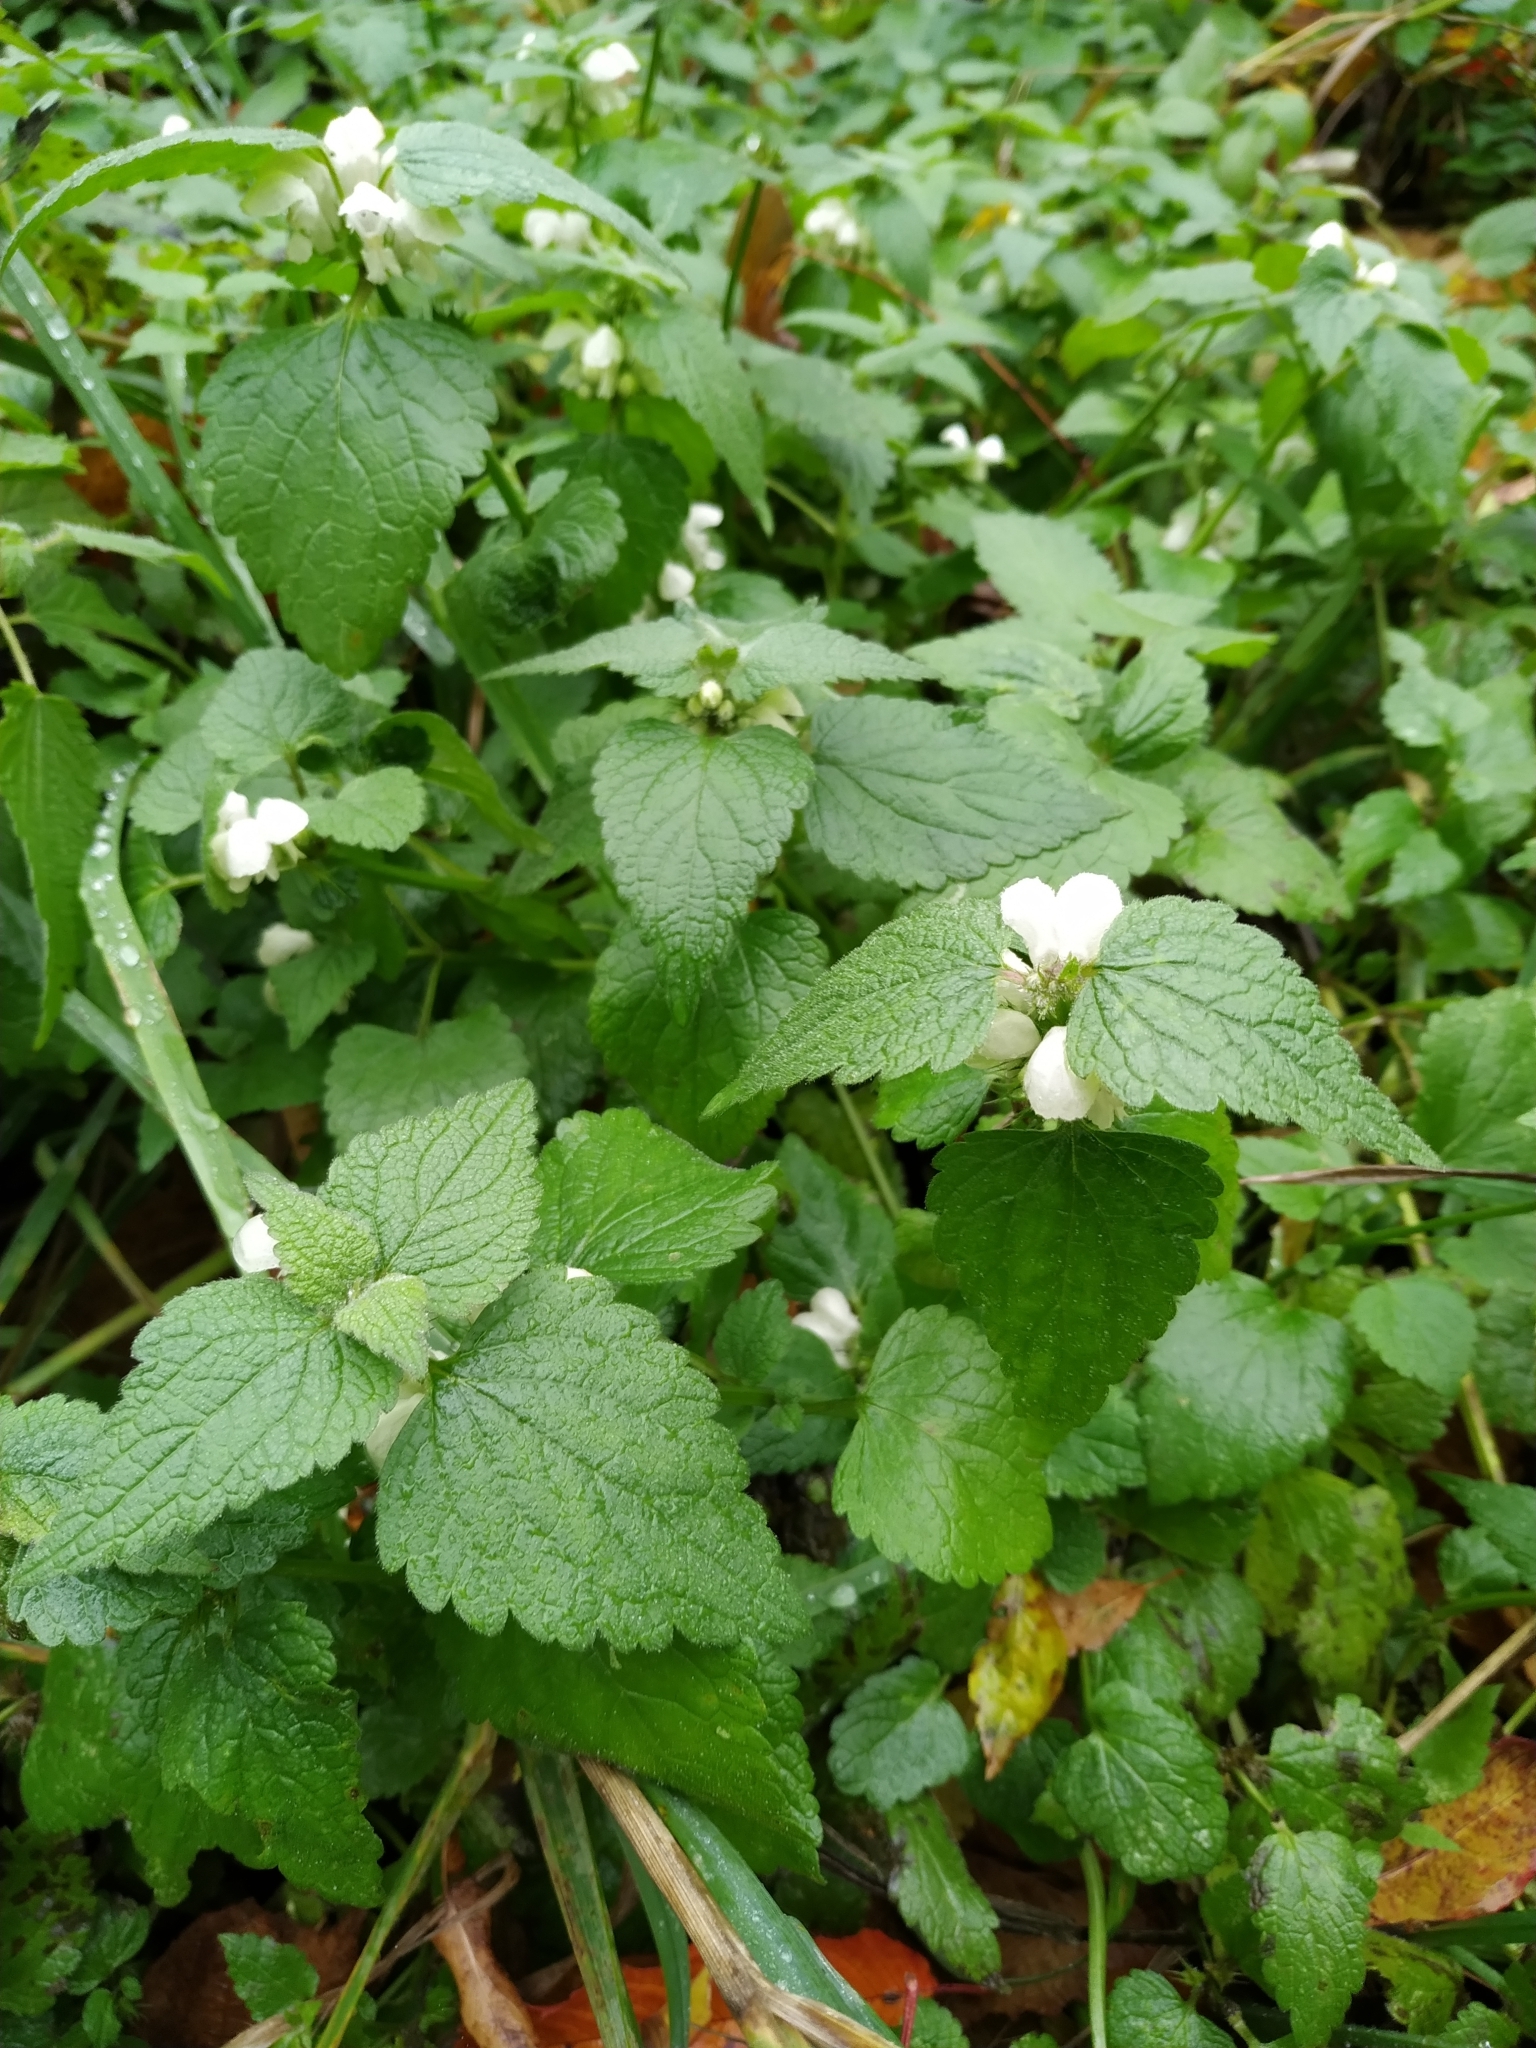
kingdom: Plantae
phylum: Tracheophyta
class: Magnoliopsida
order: Lamiales
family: Lamiaceae
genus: Lamium
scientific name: Lamium album
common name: White dead-nettle
